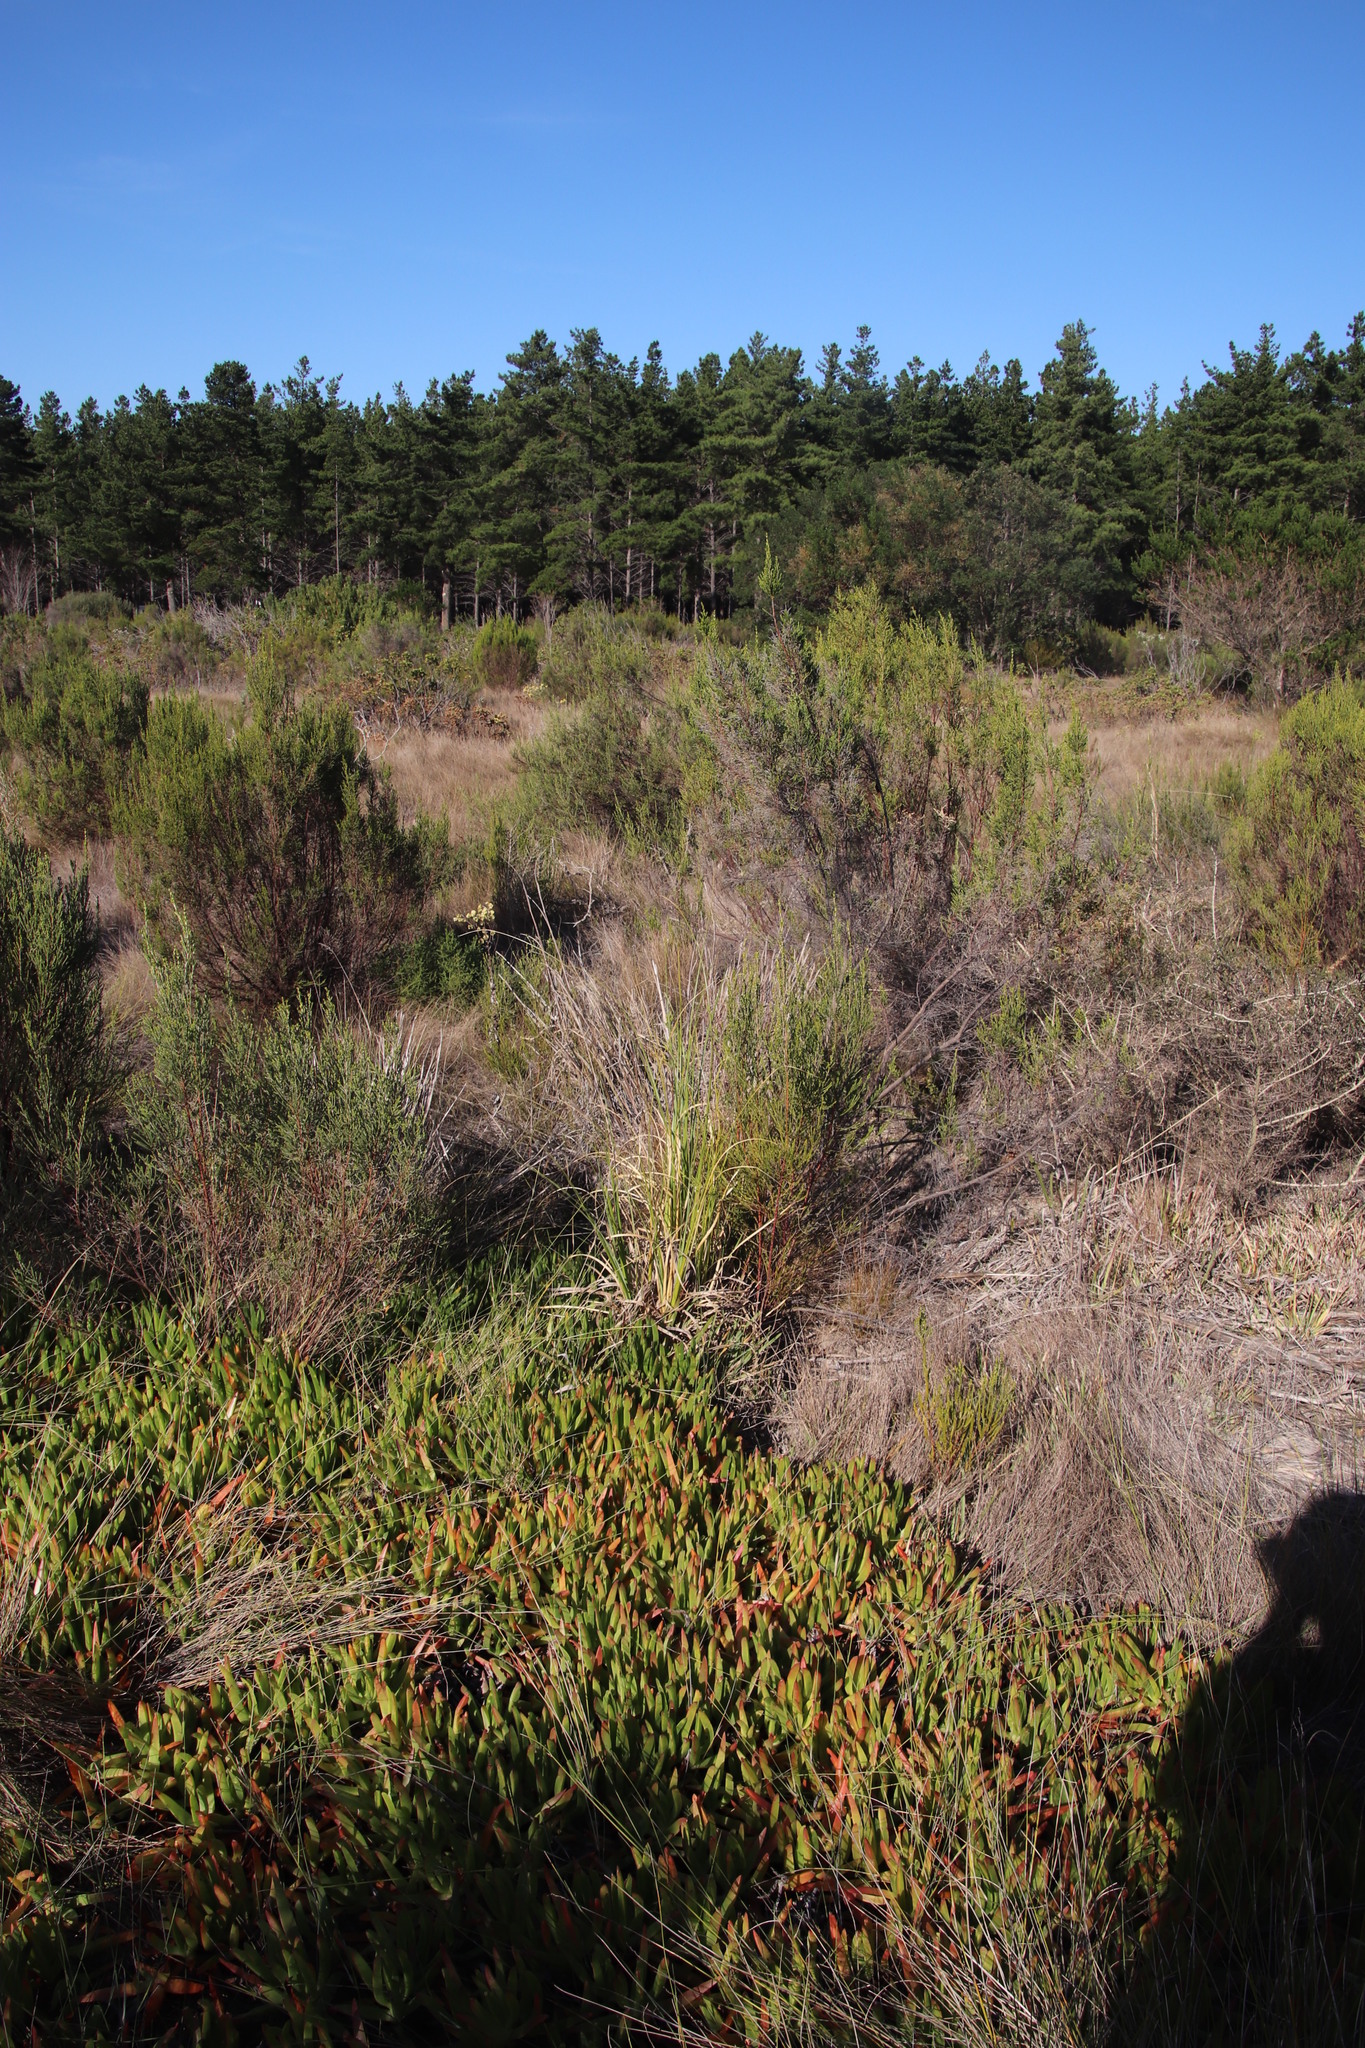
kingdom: Plantae
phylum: Tracheophyta
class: Liliopsida
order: Poales
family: Poaceae
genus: Cortaderia
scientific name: Cortaderia selloana
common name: Uruguayan pampas grass
